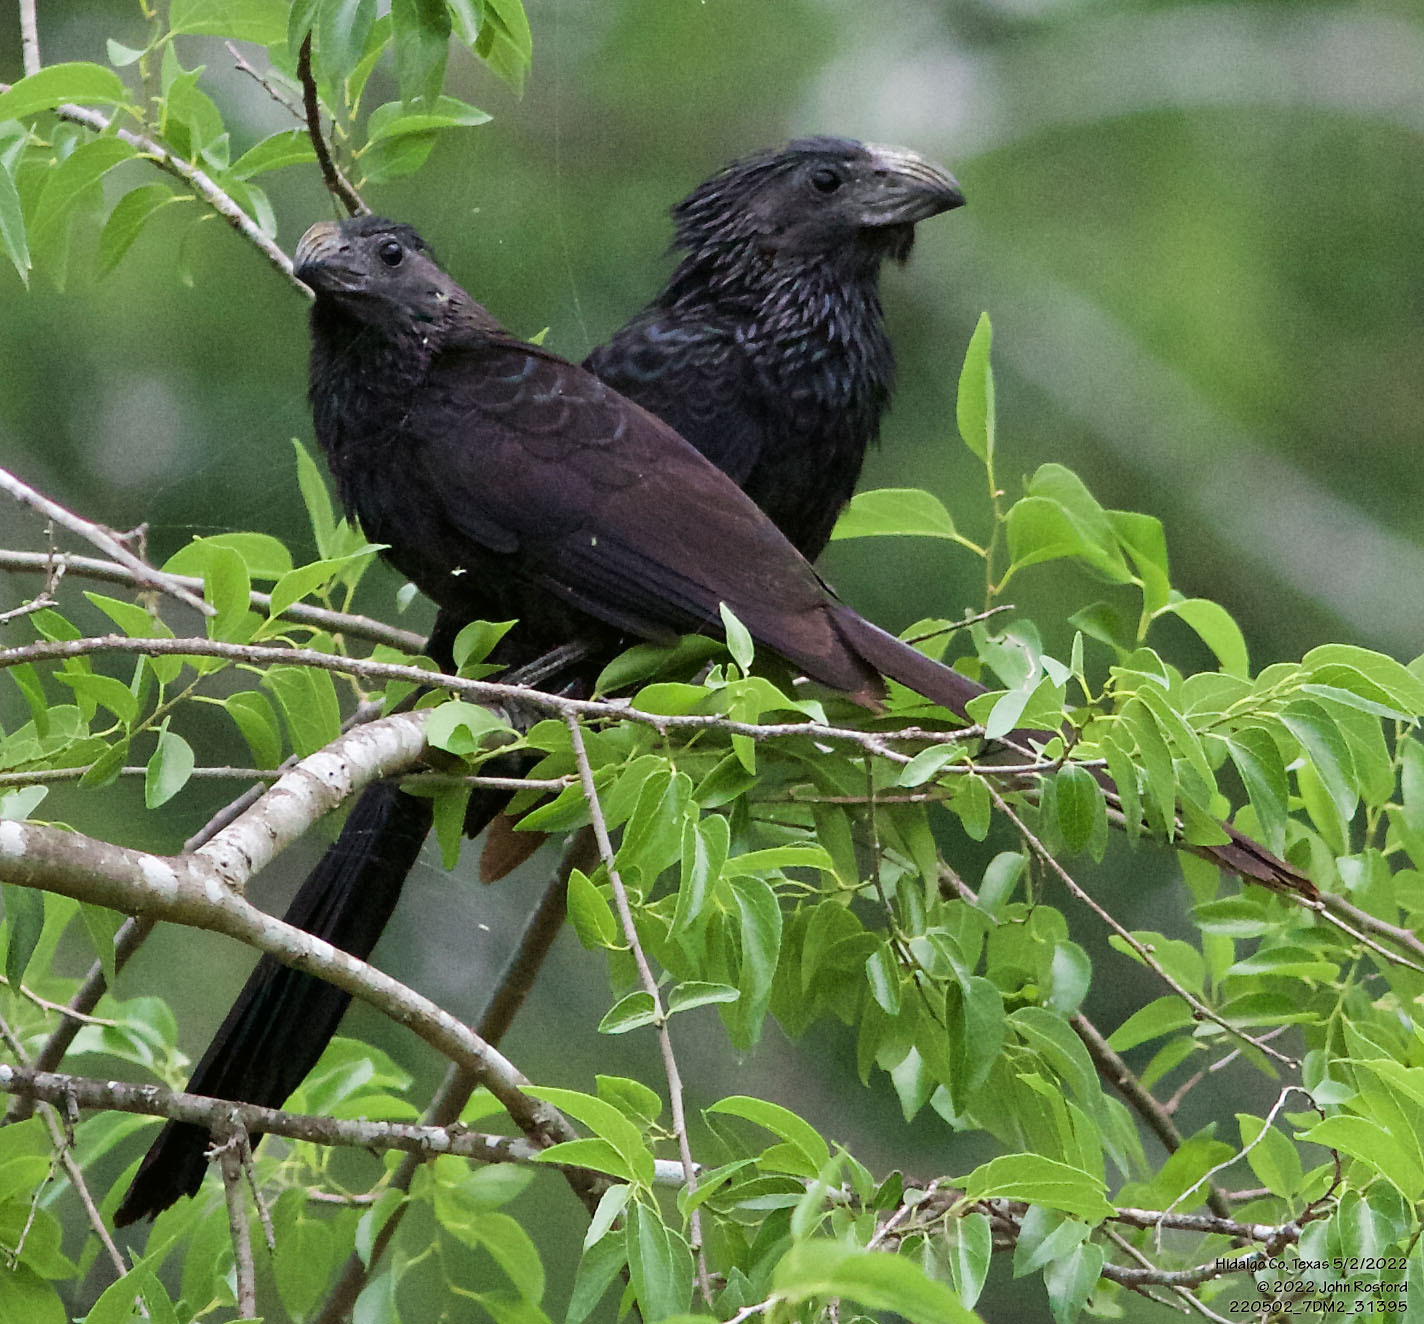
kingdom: Animalia
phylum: Chordata
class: Aves
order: Cuculiformes
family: Cuculidae
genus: Crotophaga
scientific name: Crotophaga sulcirostris
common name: Groove-billed ani
